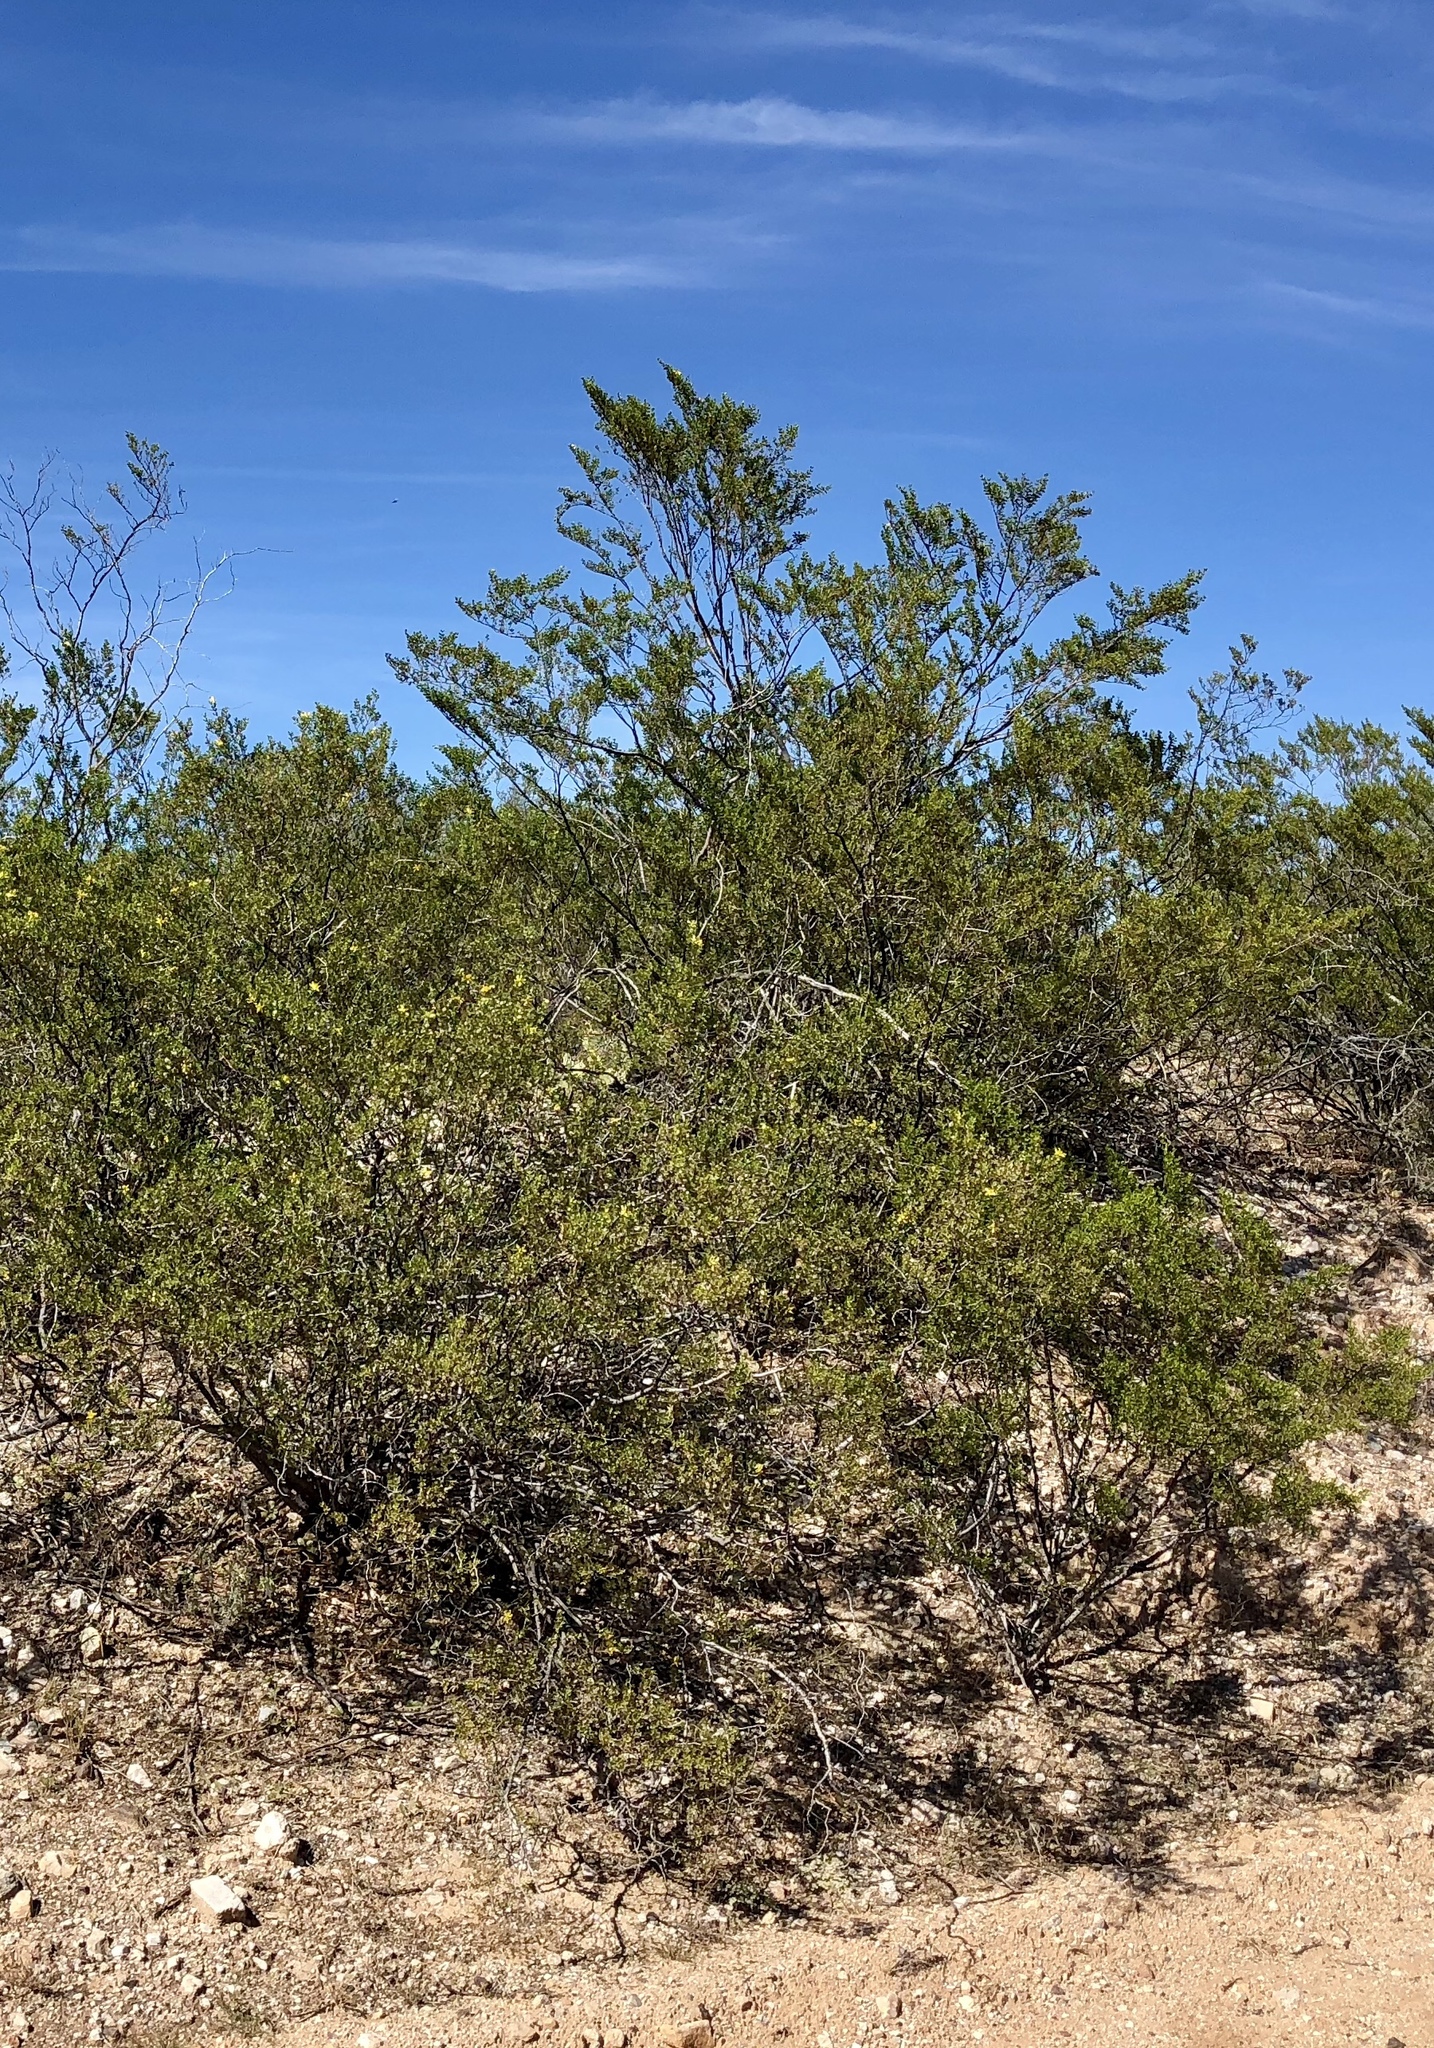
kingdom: Plantae
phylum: Tracheophyta
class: Magnoliopsida
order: Zygophyllales
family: Zygophyllaceae
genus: Larrea
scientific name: Larrea tridentata
